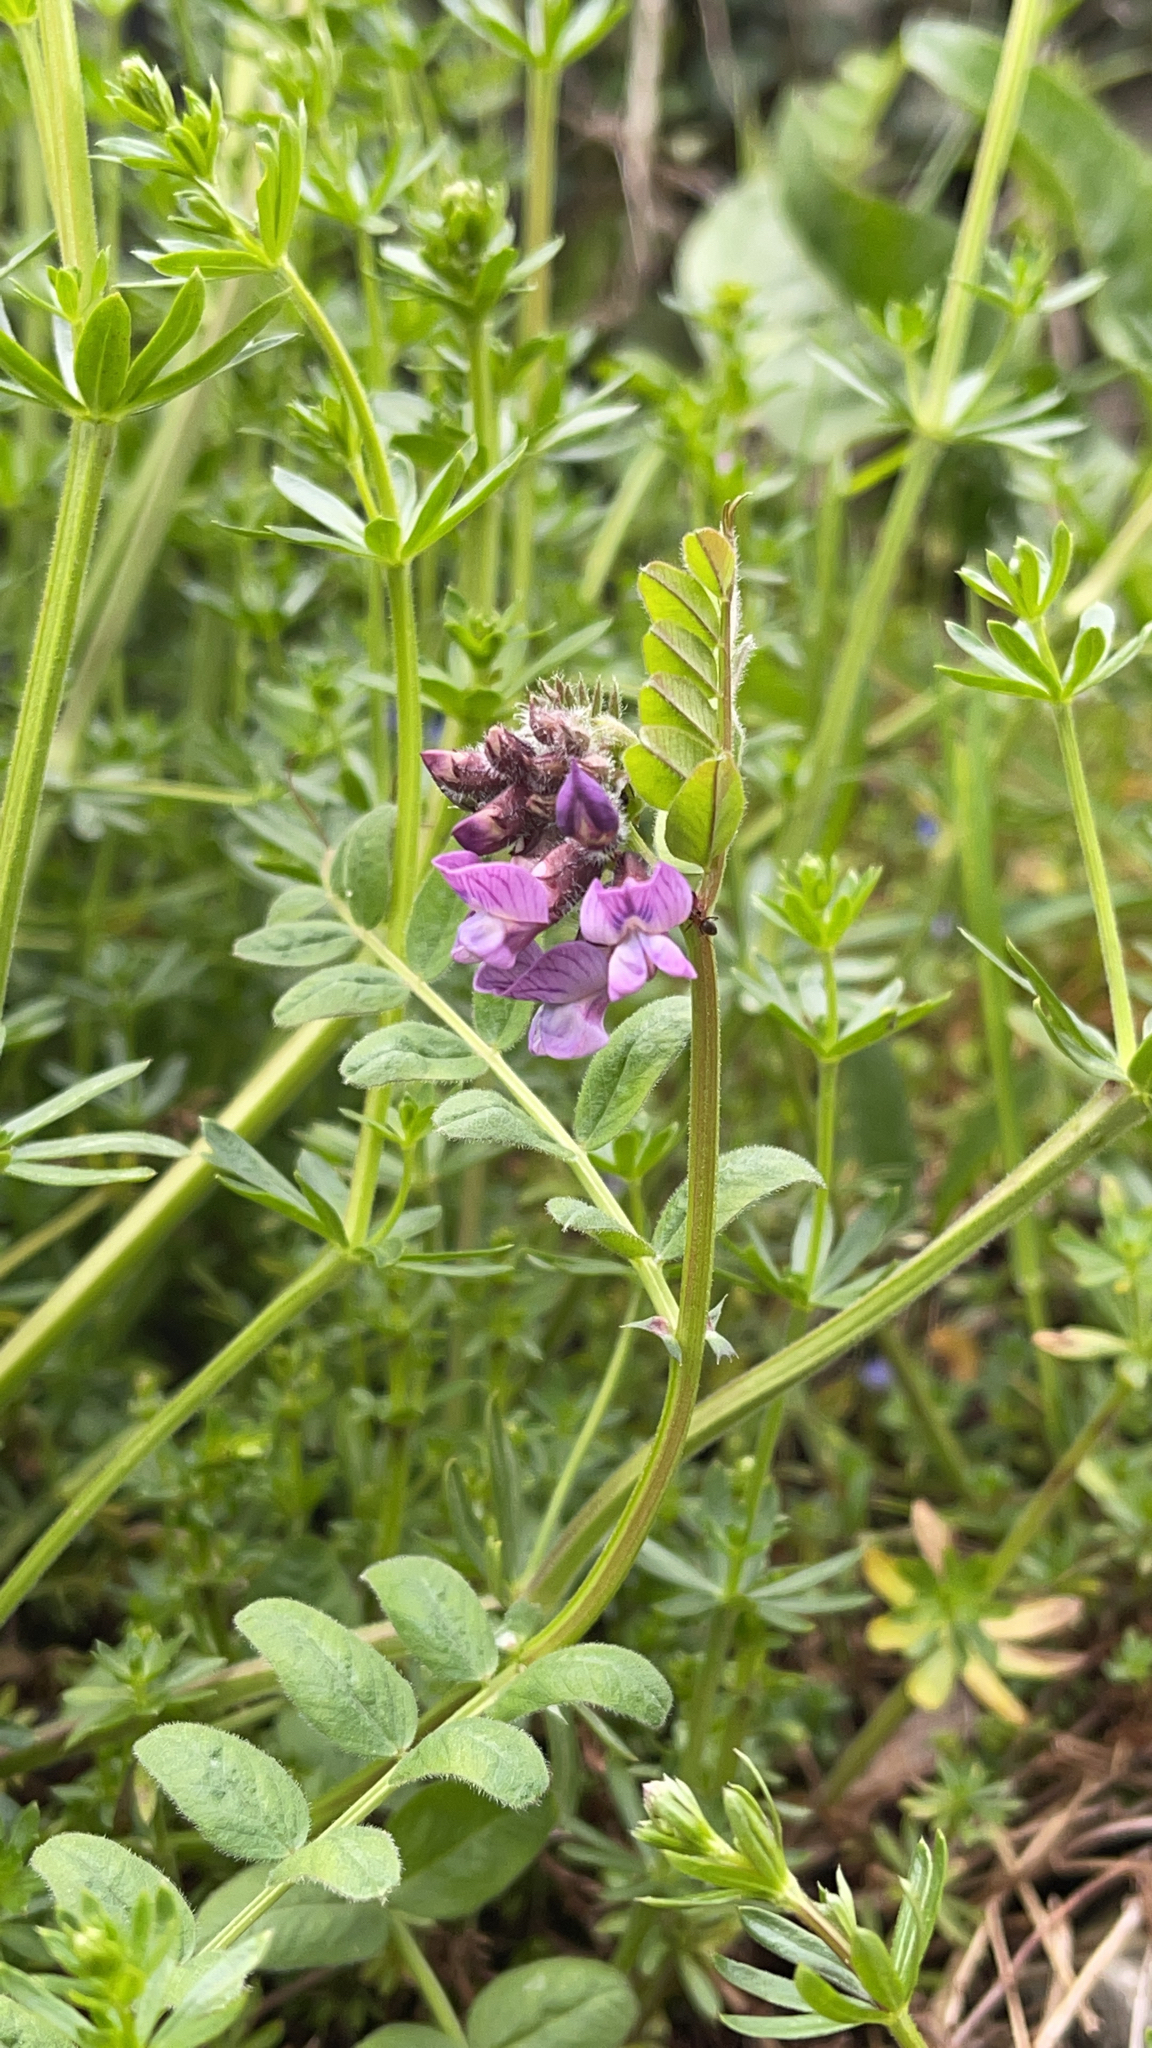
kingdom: Plantae
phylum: Tracheophyta
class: Magnoliopsida
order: Fabales
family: Fabaceae
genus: Vicia
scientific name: Vicia sepium
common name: Bush vetch
